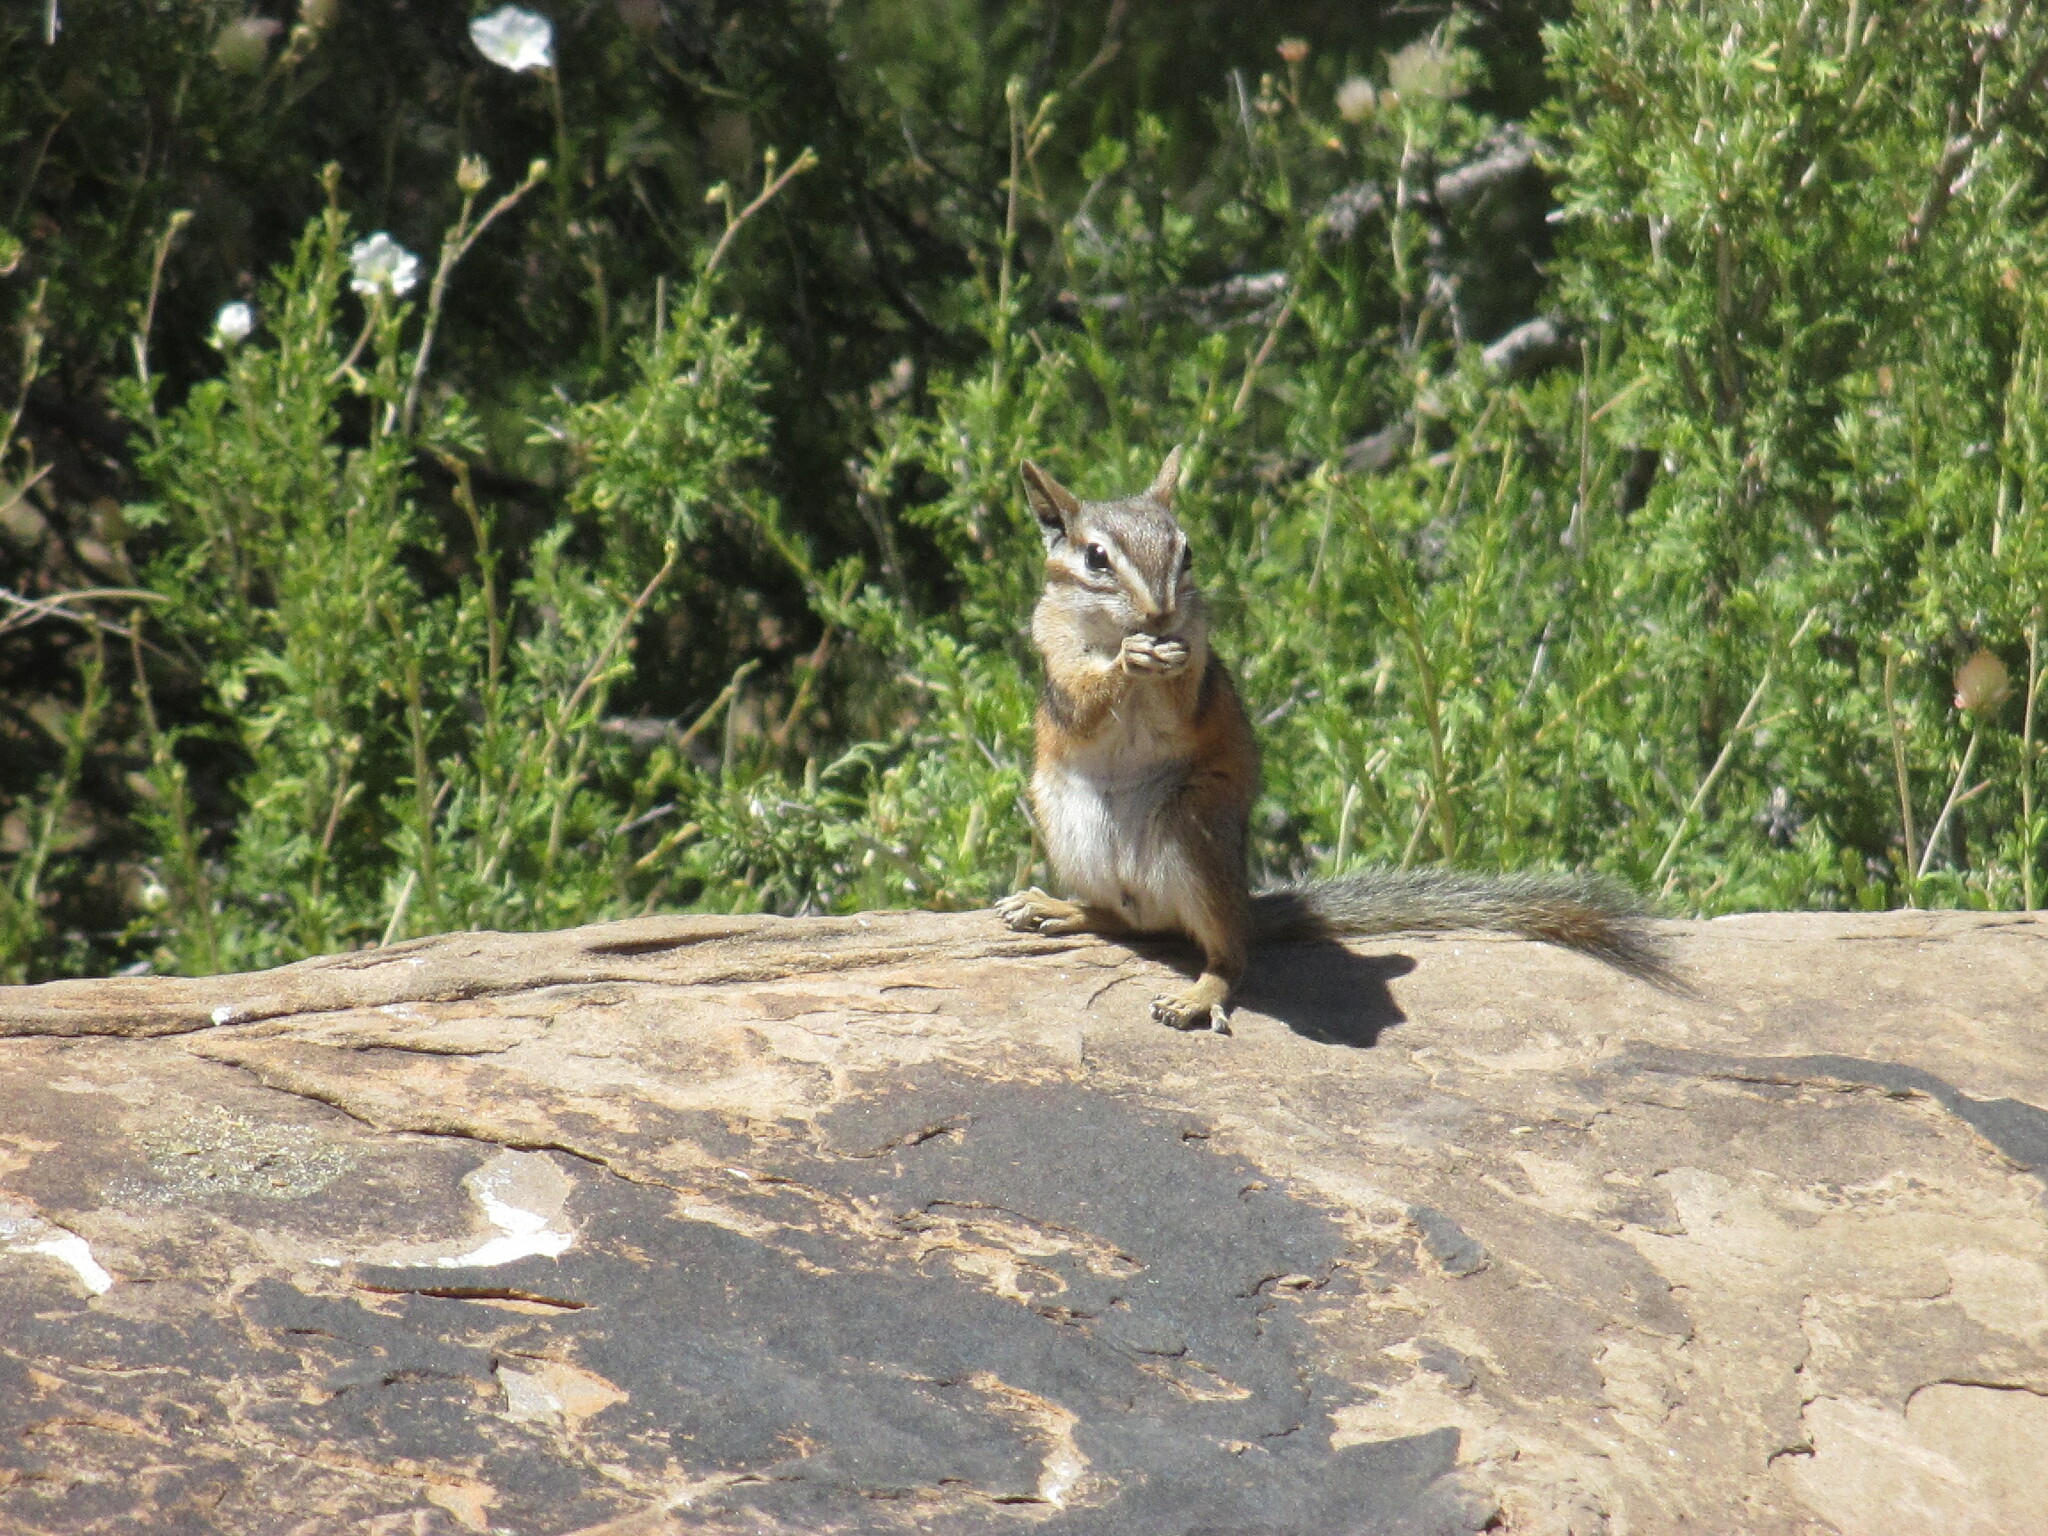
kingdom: Animalia
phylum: Chordata
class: Mammalia
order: Rodentia
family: Sciuridae
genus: Tamias
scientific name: Tamias dorsalis
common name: Cliff chipmunk
